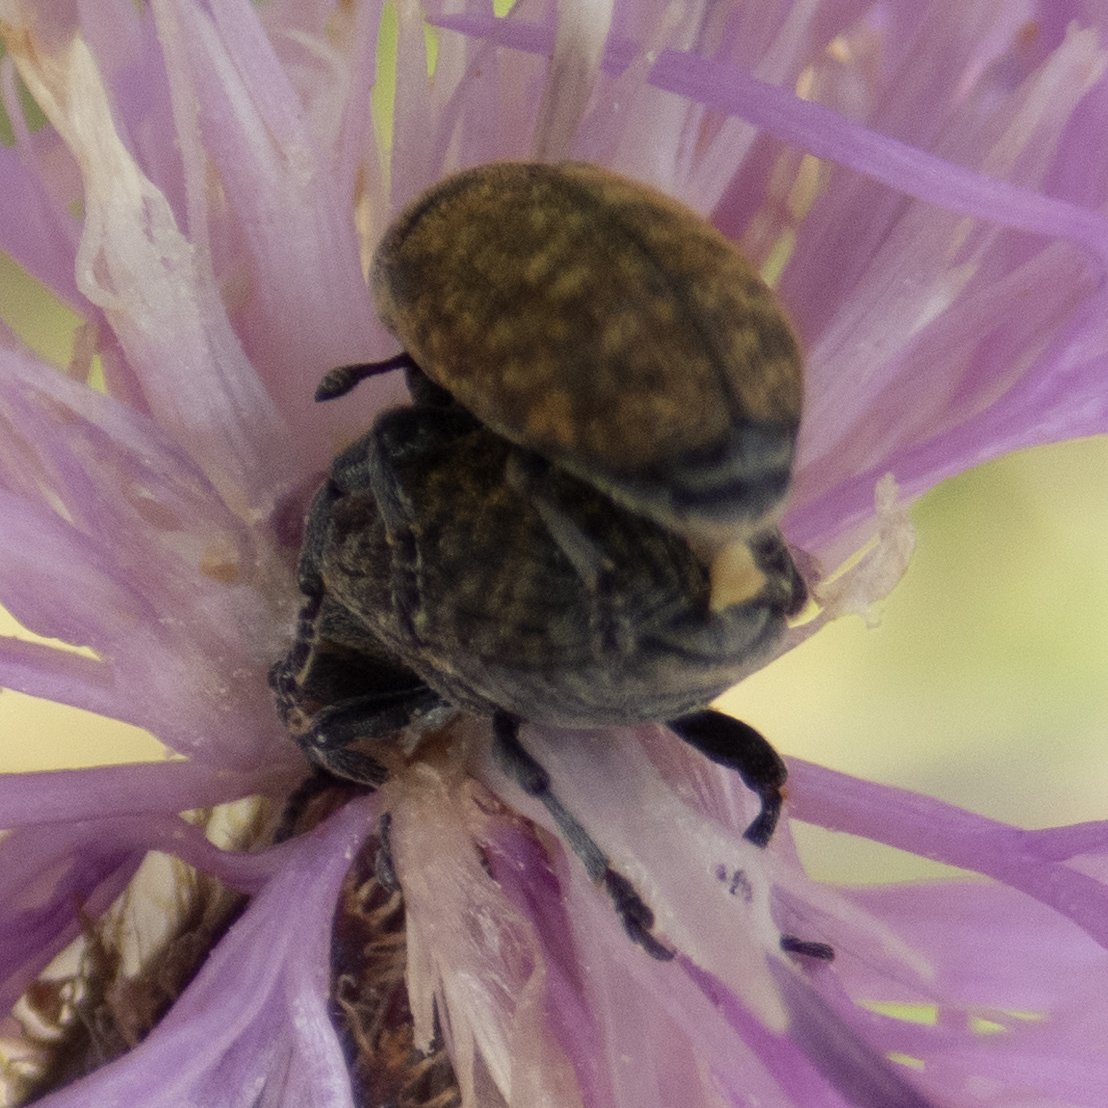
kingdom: Animalia
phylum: Arthropoda
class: Insecta
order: Coleoptera
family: Curculionidae
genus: Larinus
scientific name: Larinus obtusus
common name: Weevil
